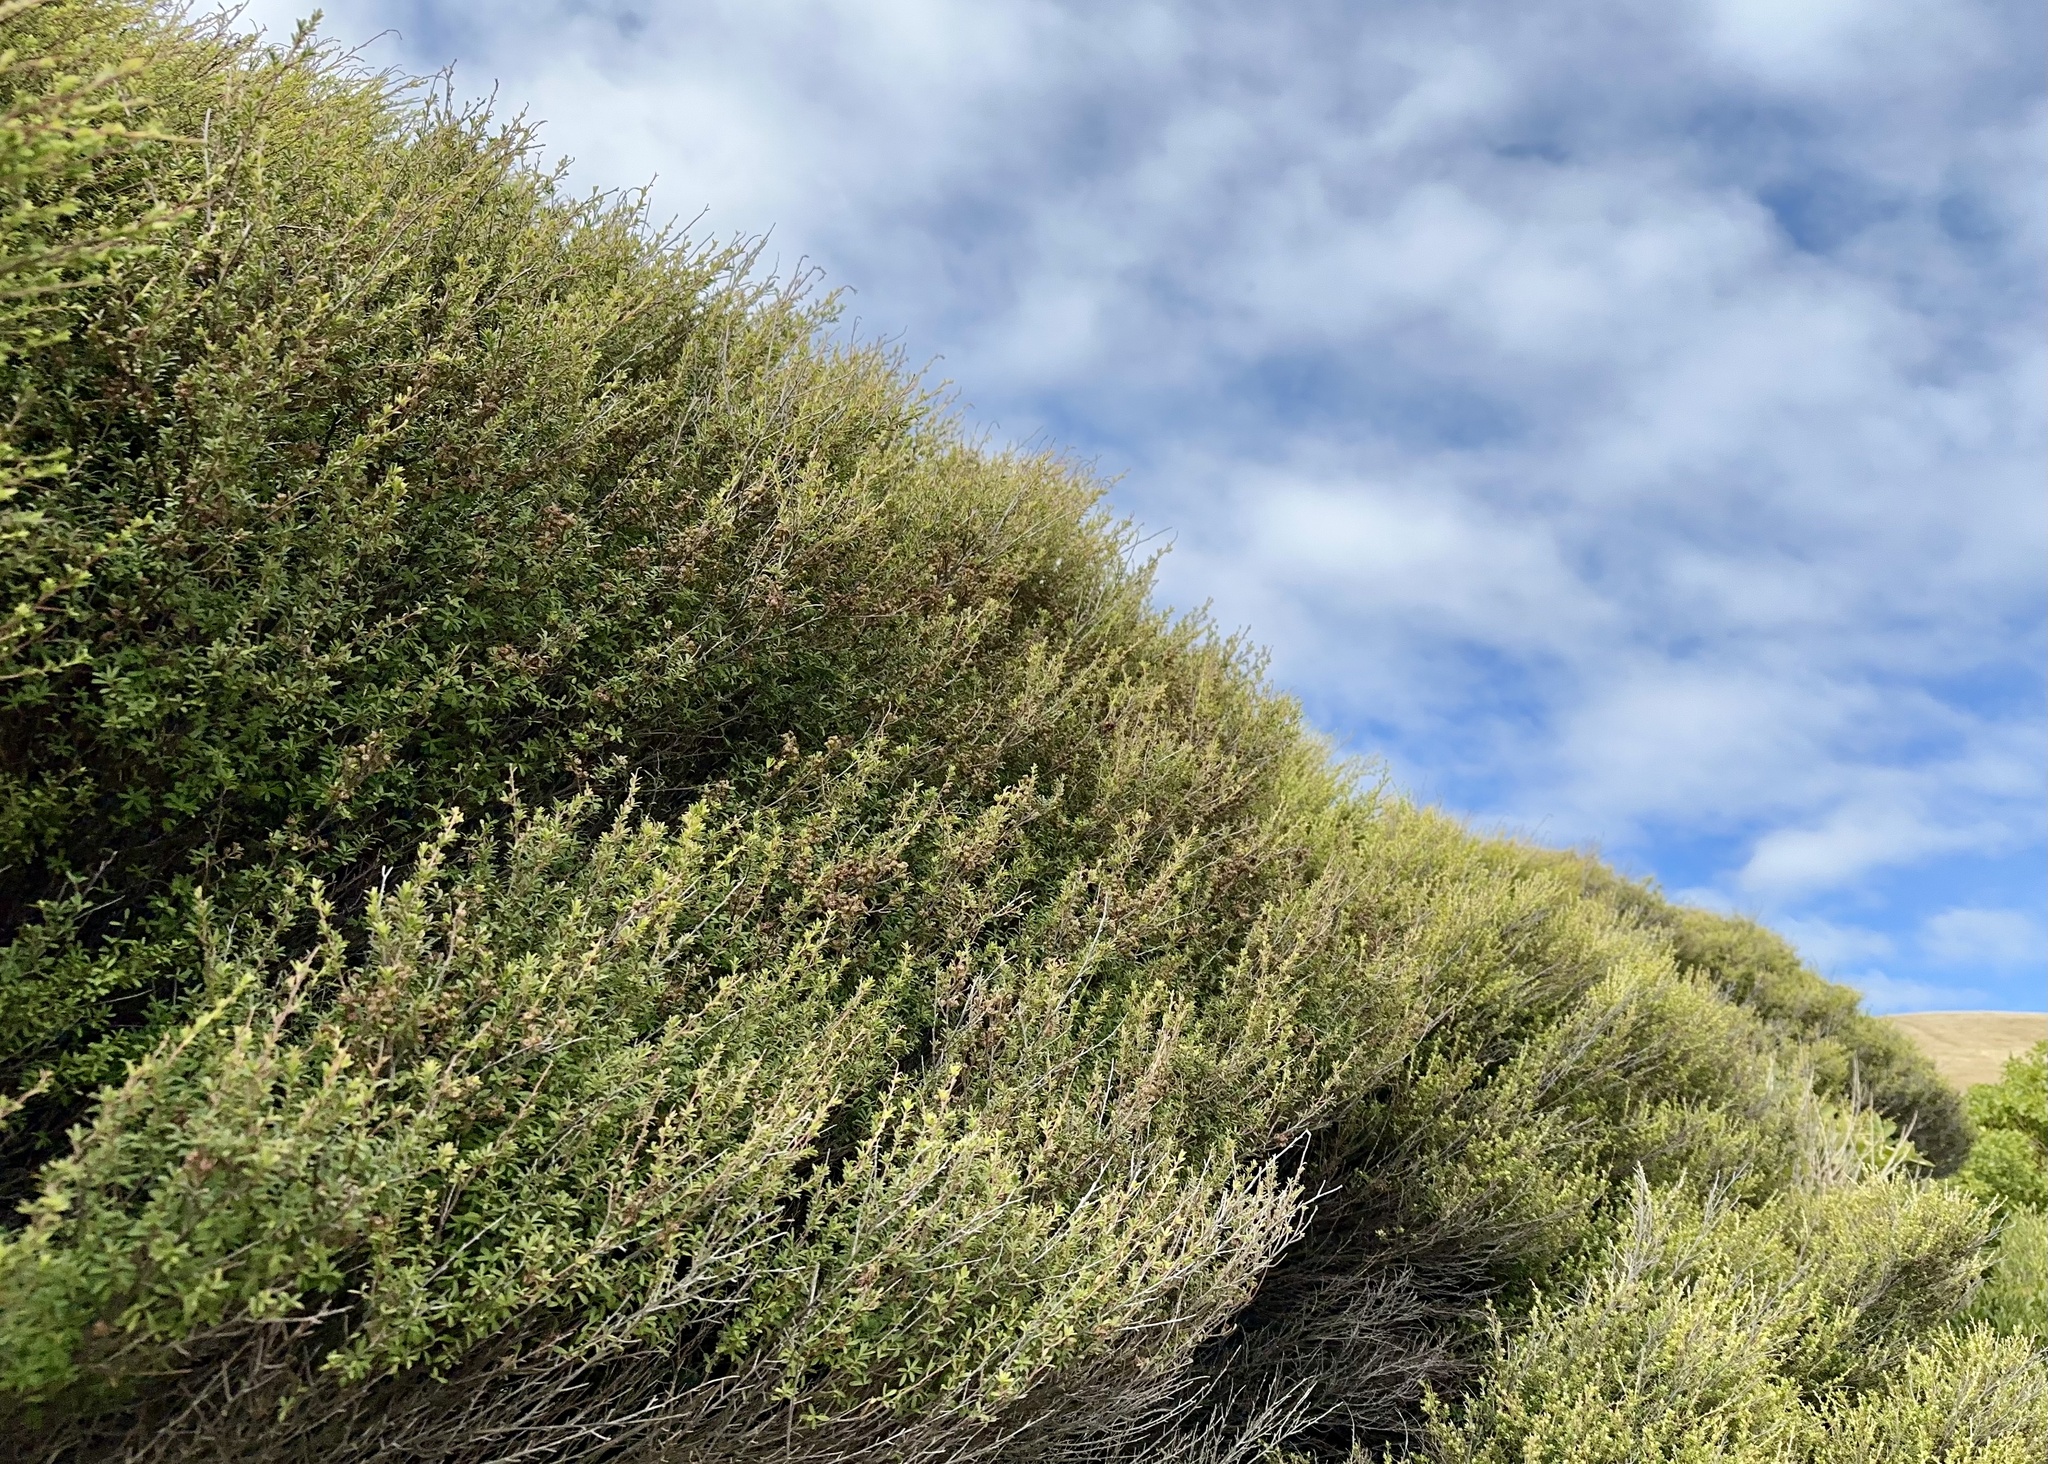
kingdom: Plantae
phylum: Tracheophyta
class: Magnoliopsida
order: Myrtales
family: Myrtaceae
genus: Kunzea
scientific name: Kunzea robusta
